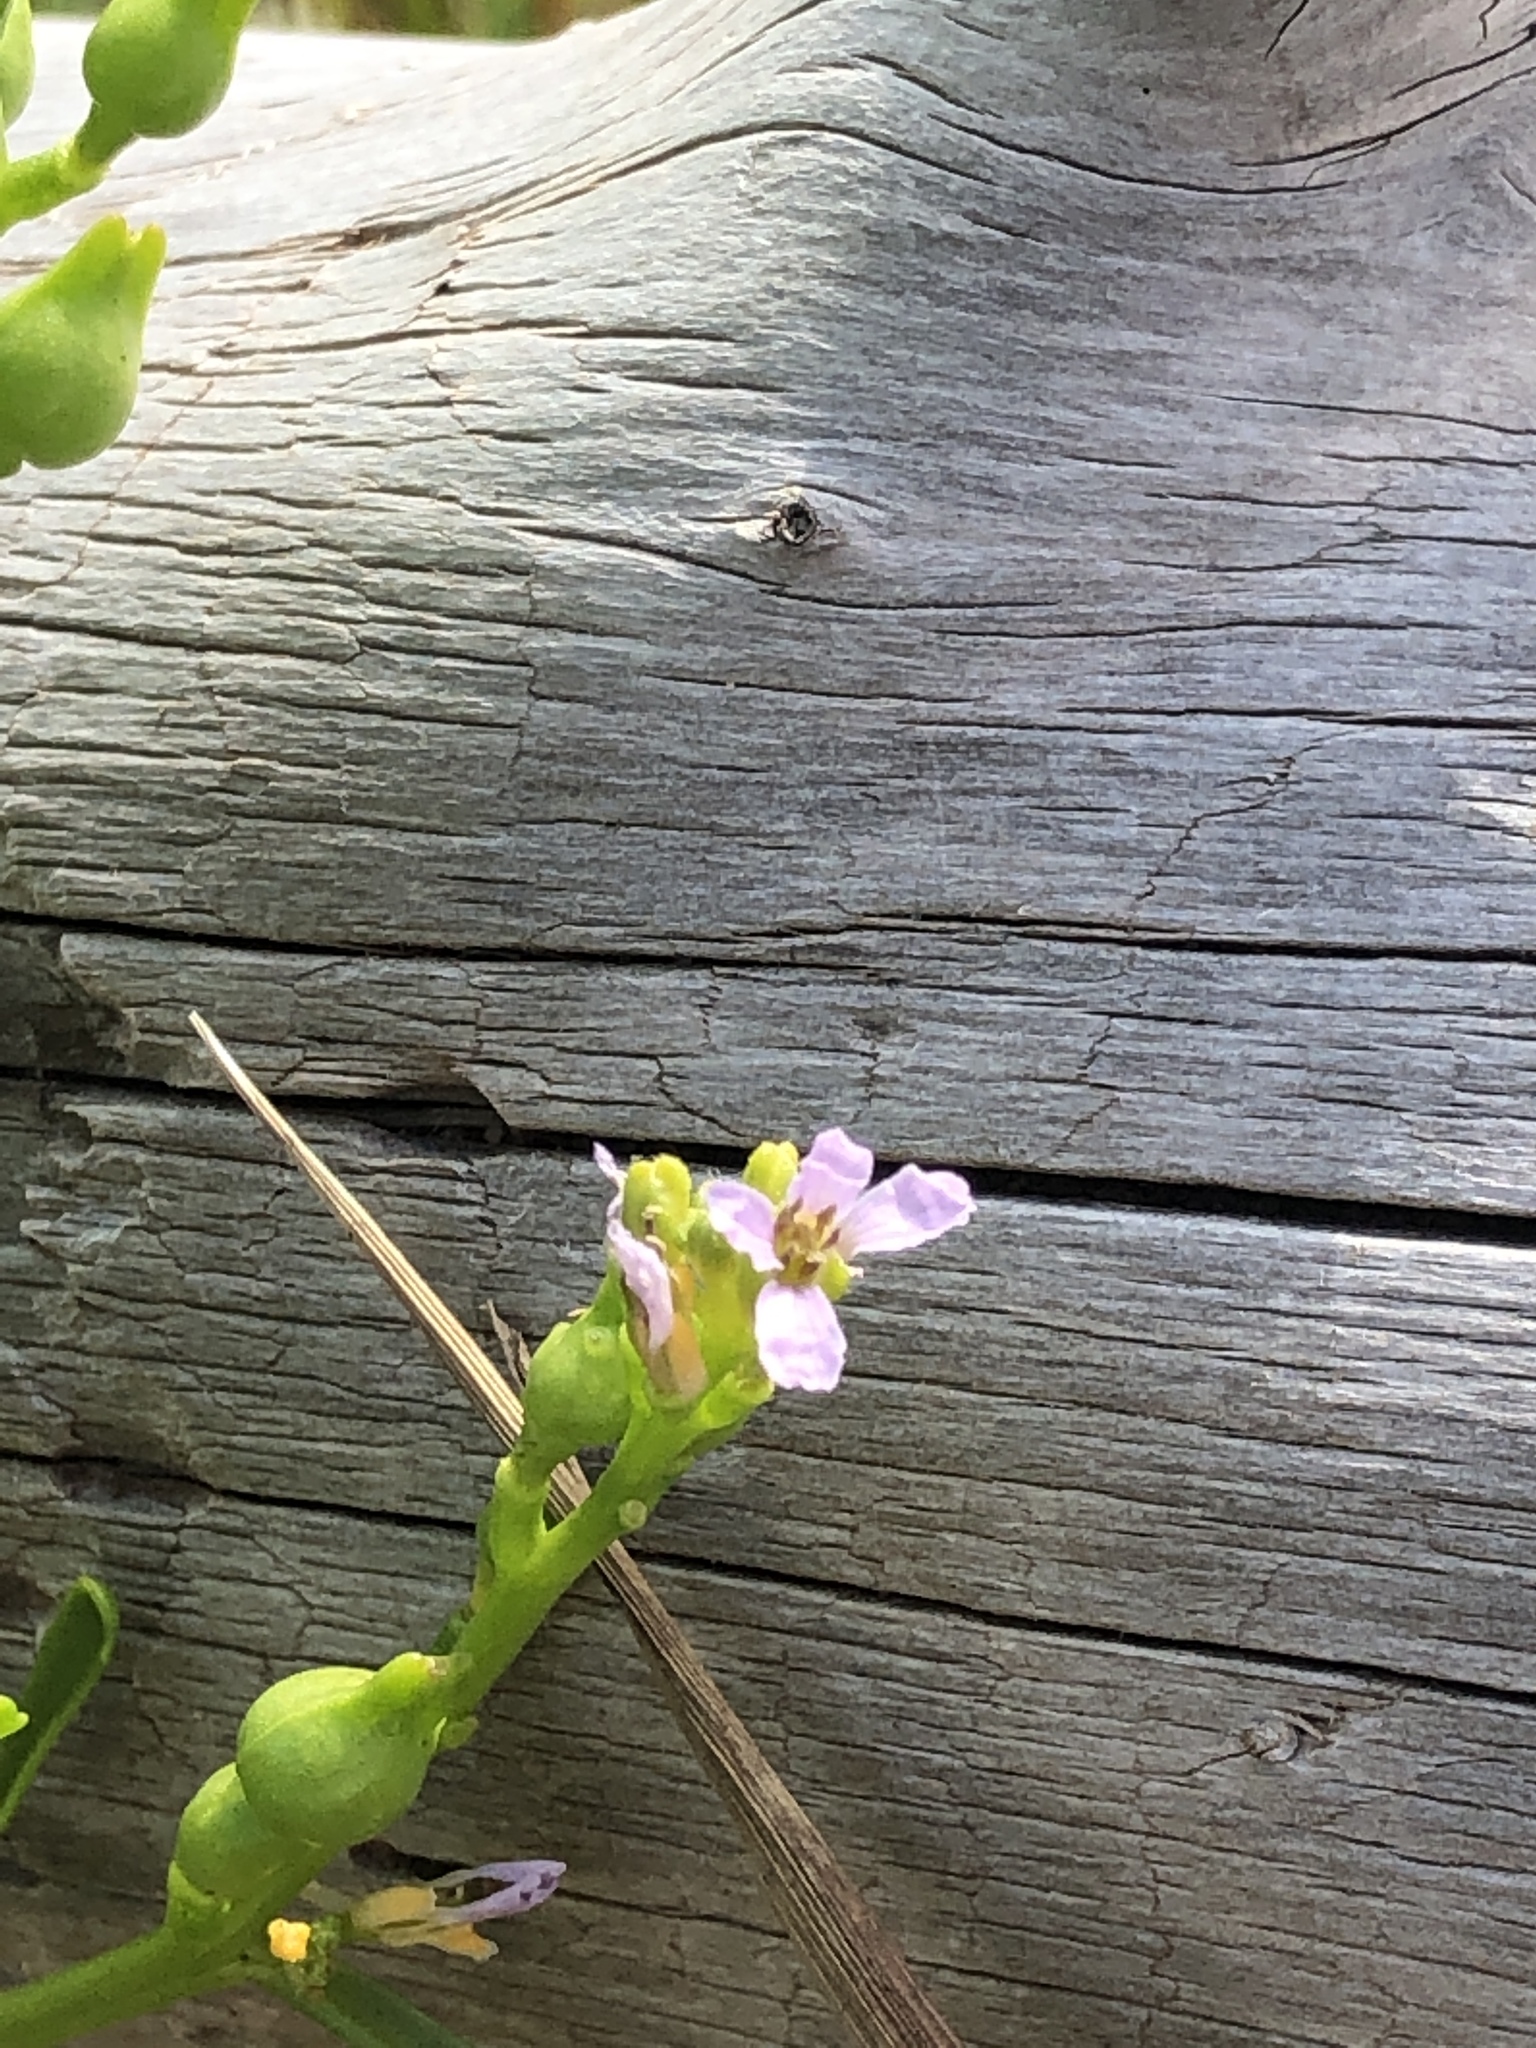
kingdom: Plantae
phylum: Tracheophyta
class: Magnoliopsida
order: Brassicales
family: Brassicaceae
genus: Cakile
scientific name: Cakile edentula
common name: American sea rocket
